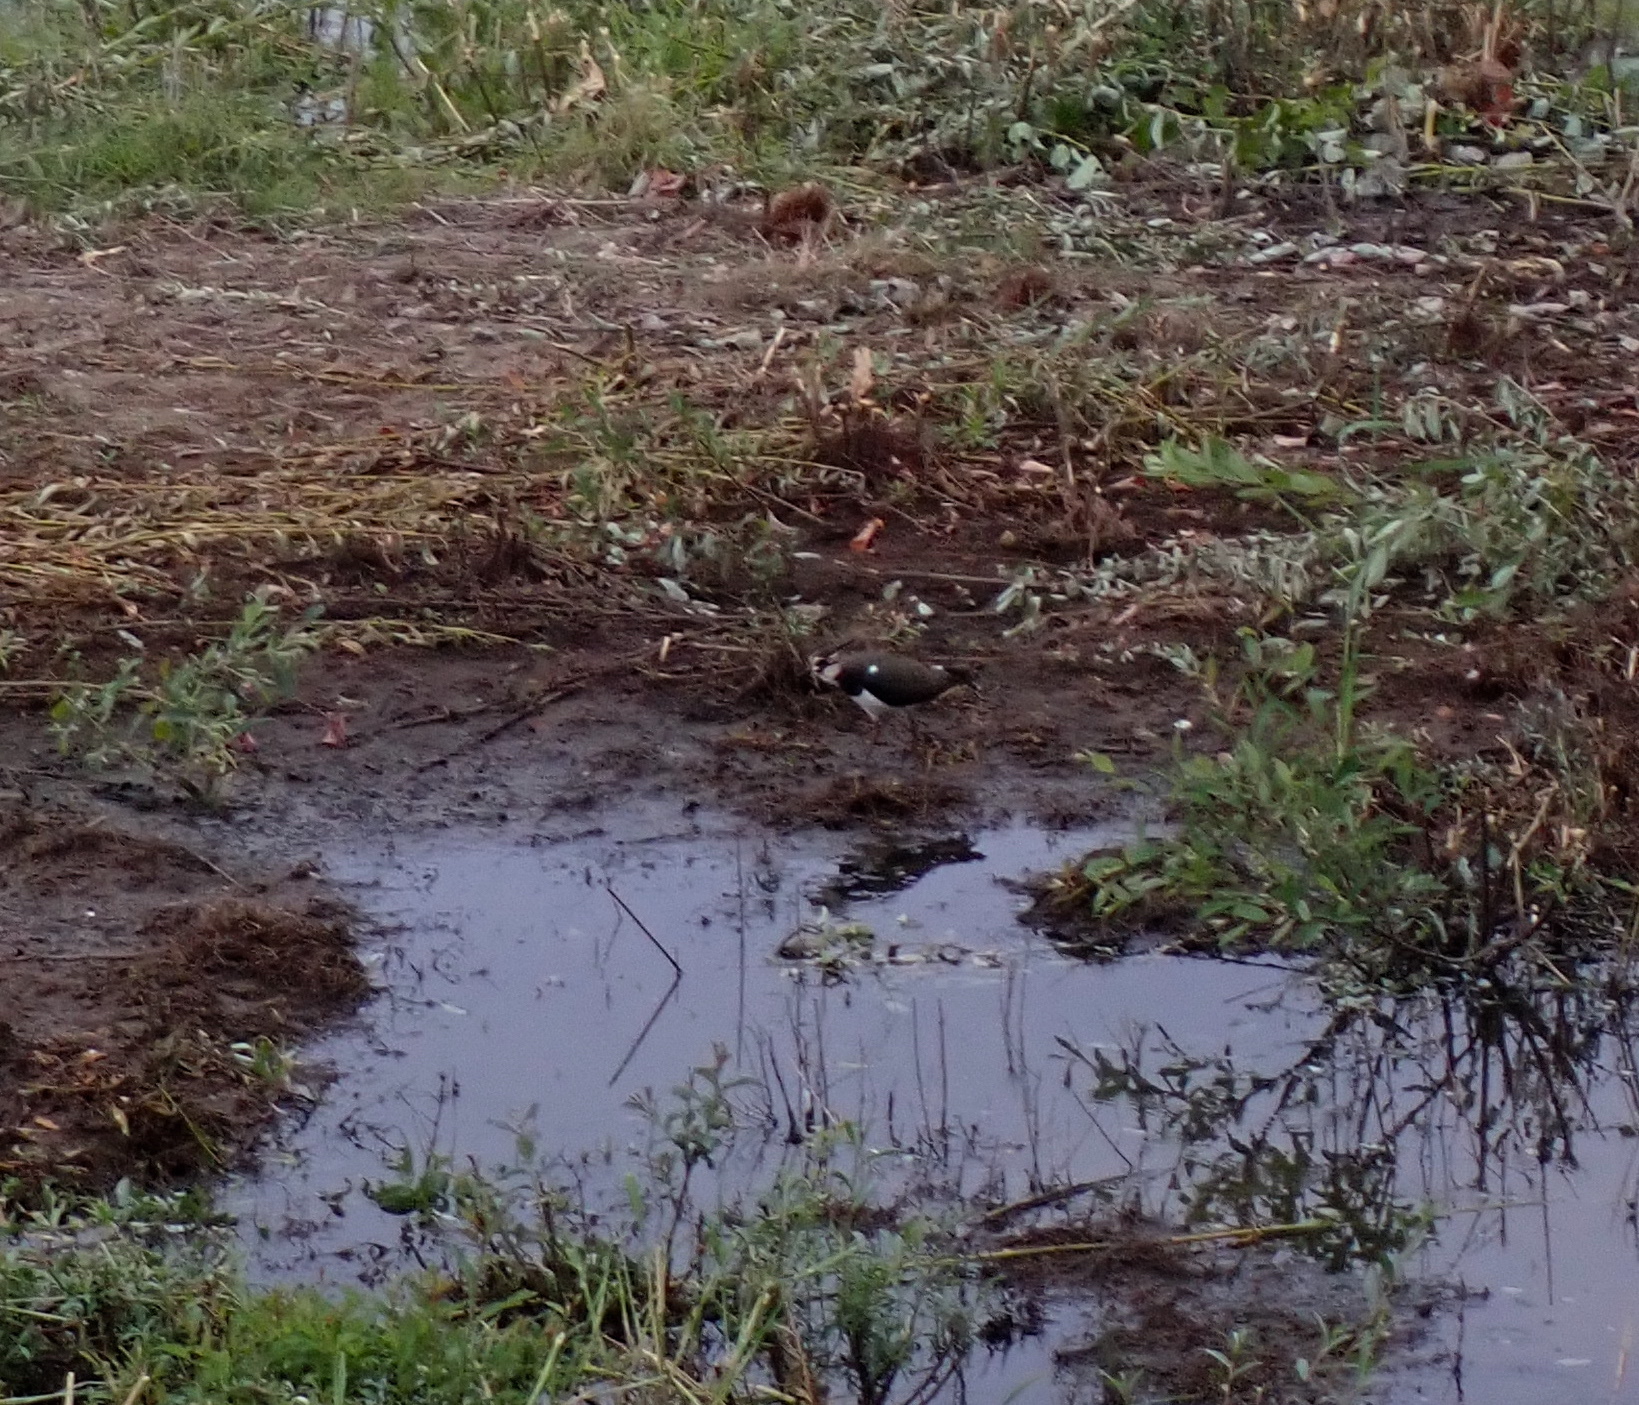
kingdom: Animalia
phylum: Chordata
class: Aves
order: Charadriiformes
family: Charadriidae
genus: Vanellus
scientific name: Vanellus vanellus
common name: Northern lapwing
